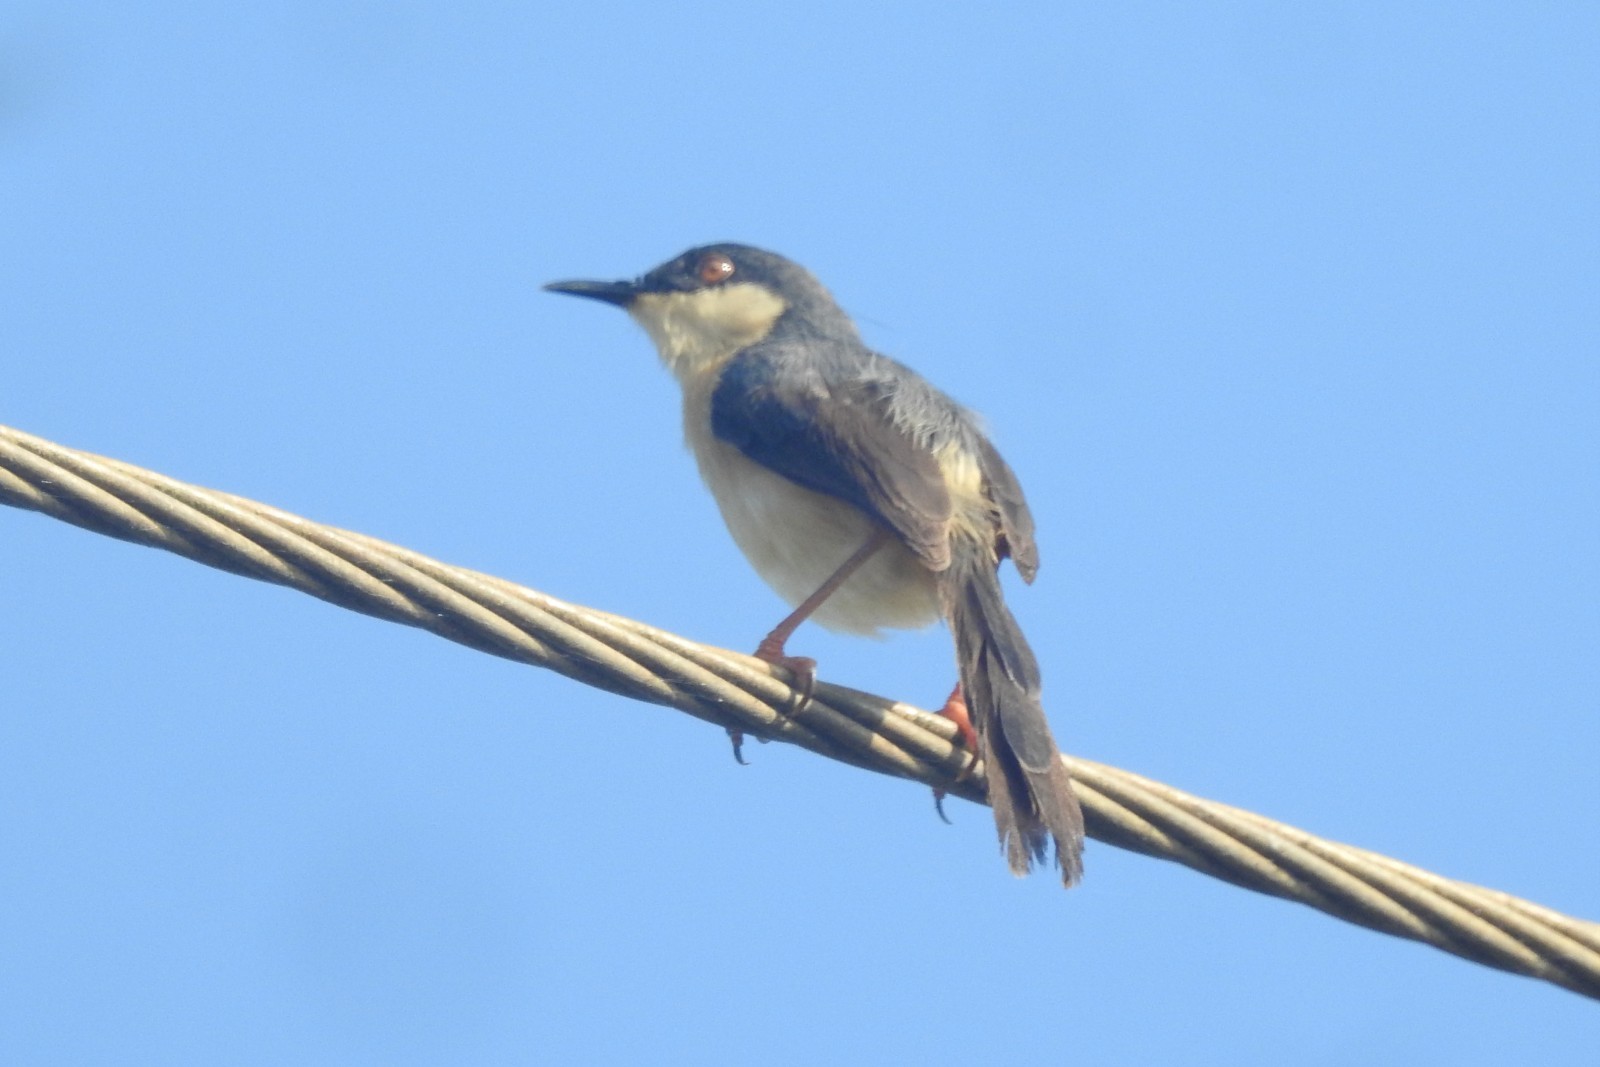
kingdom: Animalia
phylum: Chordata
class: Aves
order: Passeriformes
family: Cisticolidae
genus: Prinia
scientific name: Prinia socialis
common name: Ashy prinia
